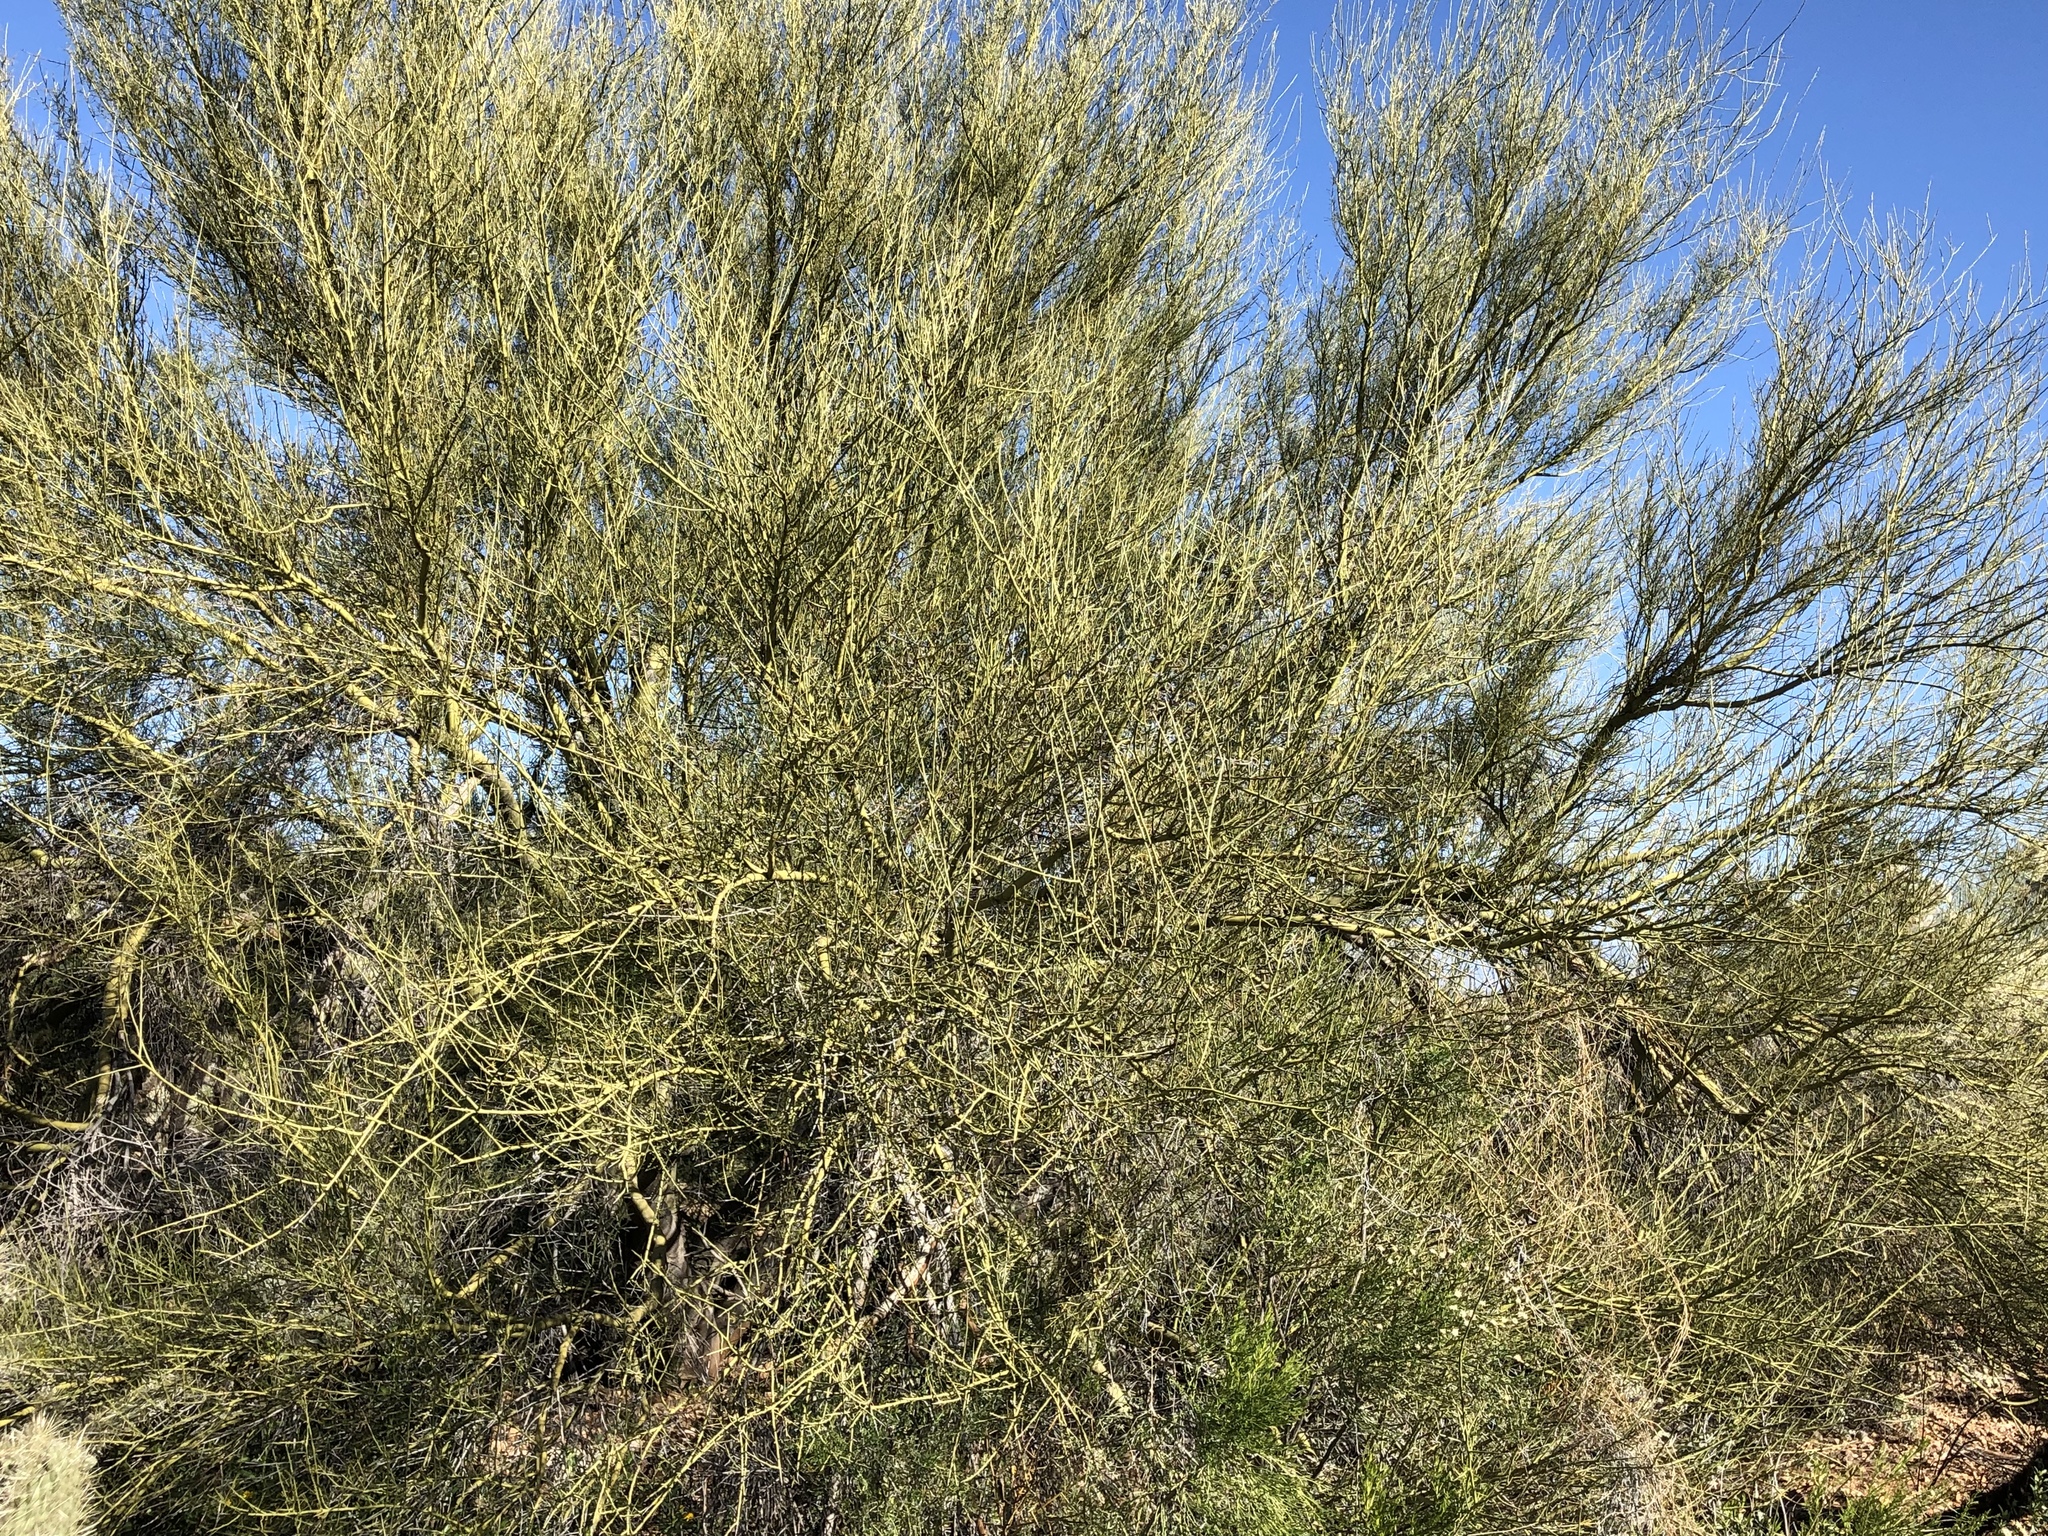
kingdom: Plantae
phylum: Tracheophyta
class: Magnoliopsida
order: Fabales
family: Fabaceae
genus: Parkinsonia
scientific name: Parkinsonia microphylla
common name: Yellow paloverde
